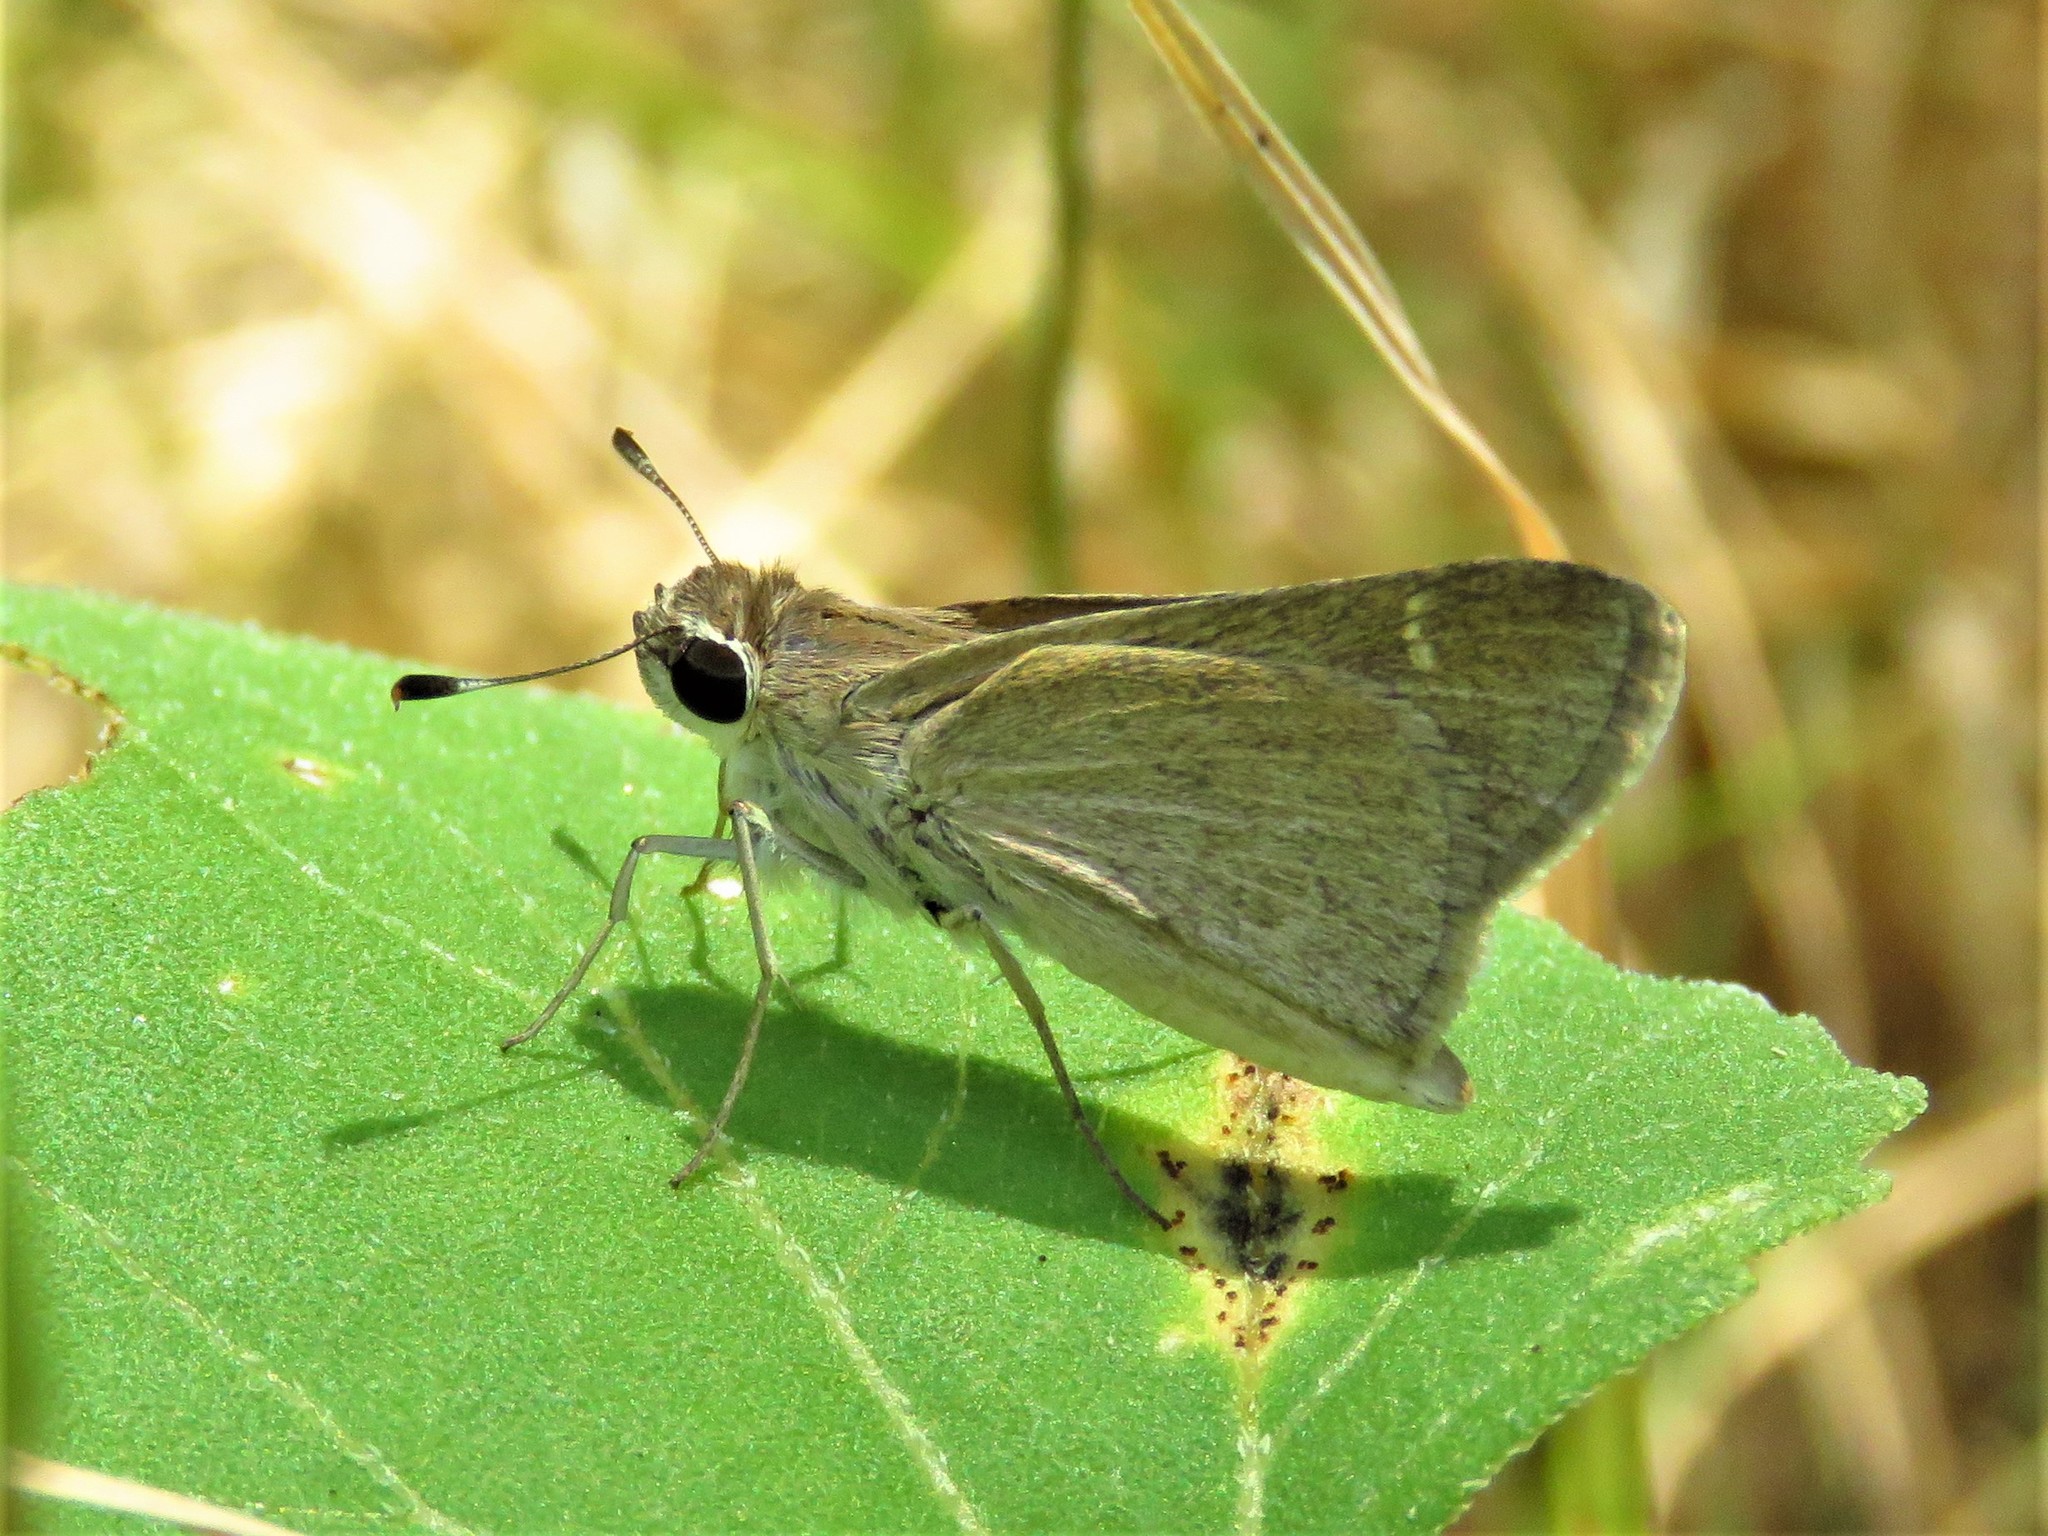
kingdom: Animalia
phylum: Arthropoda
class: Insecta
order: Lepidoptera
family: Hesperiidae
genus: Lerodea
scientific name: Lerodea eufala
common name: Eufala skipper
